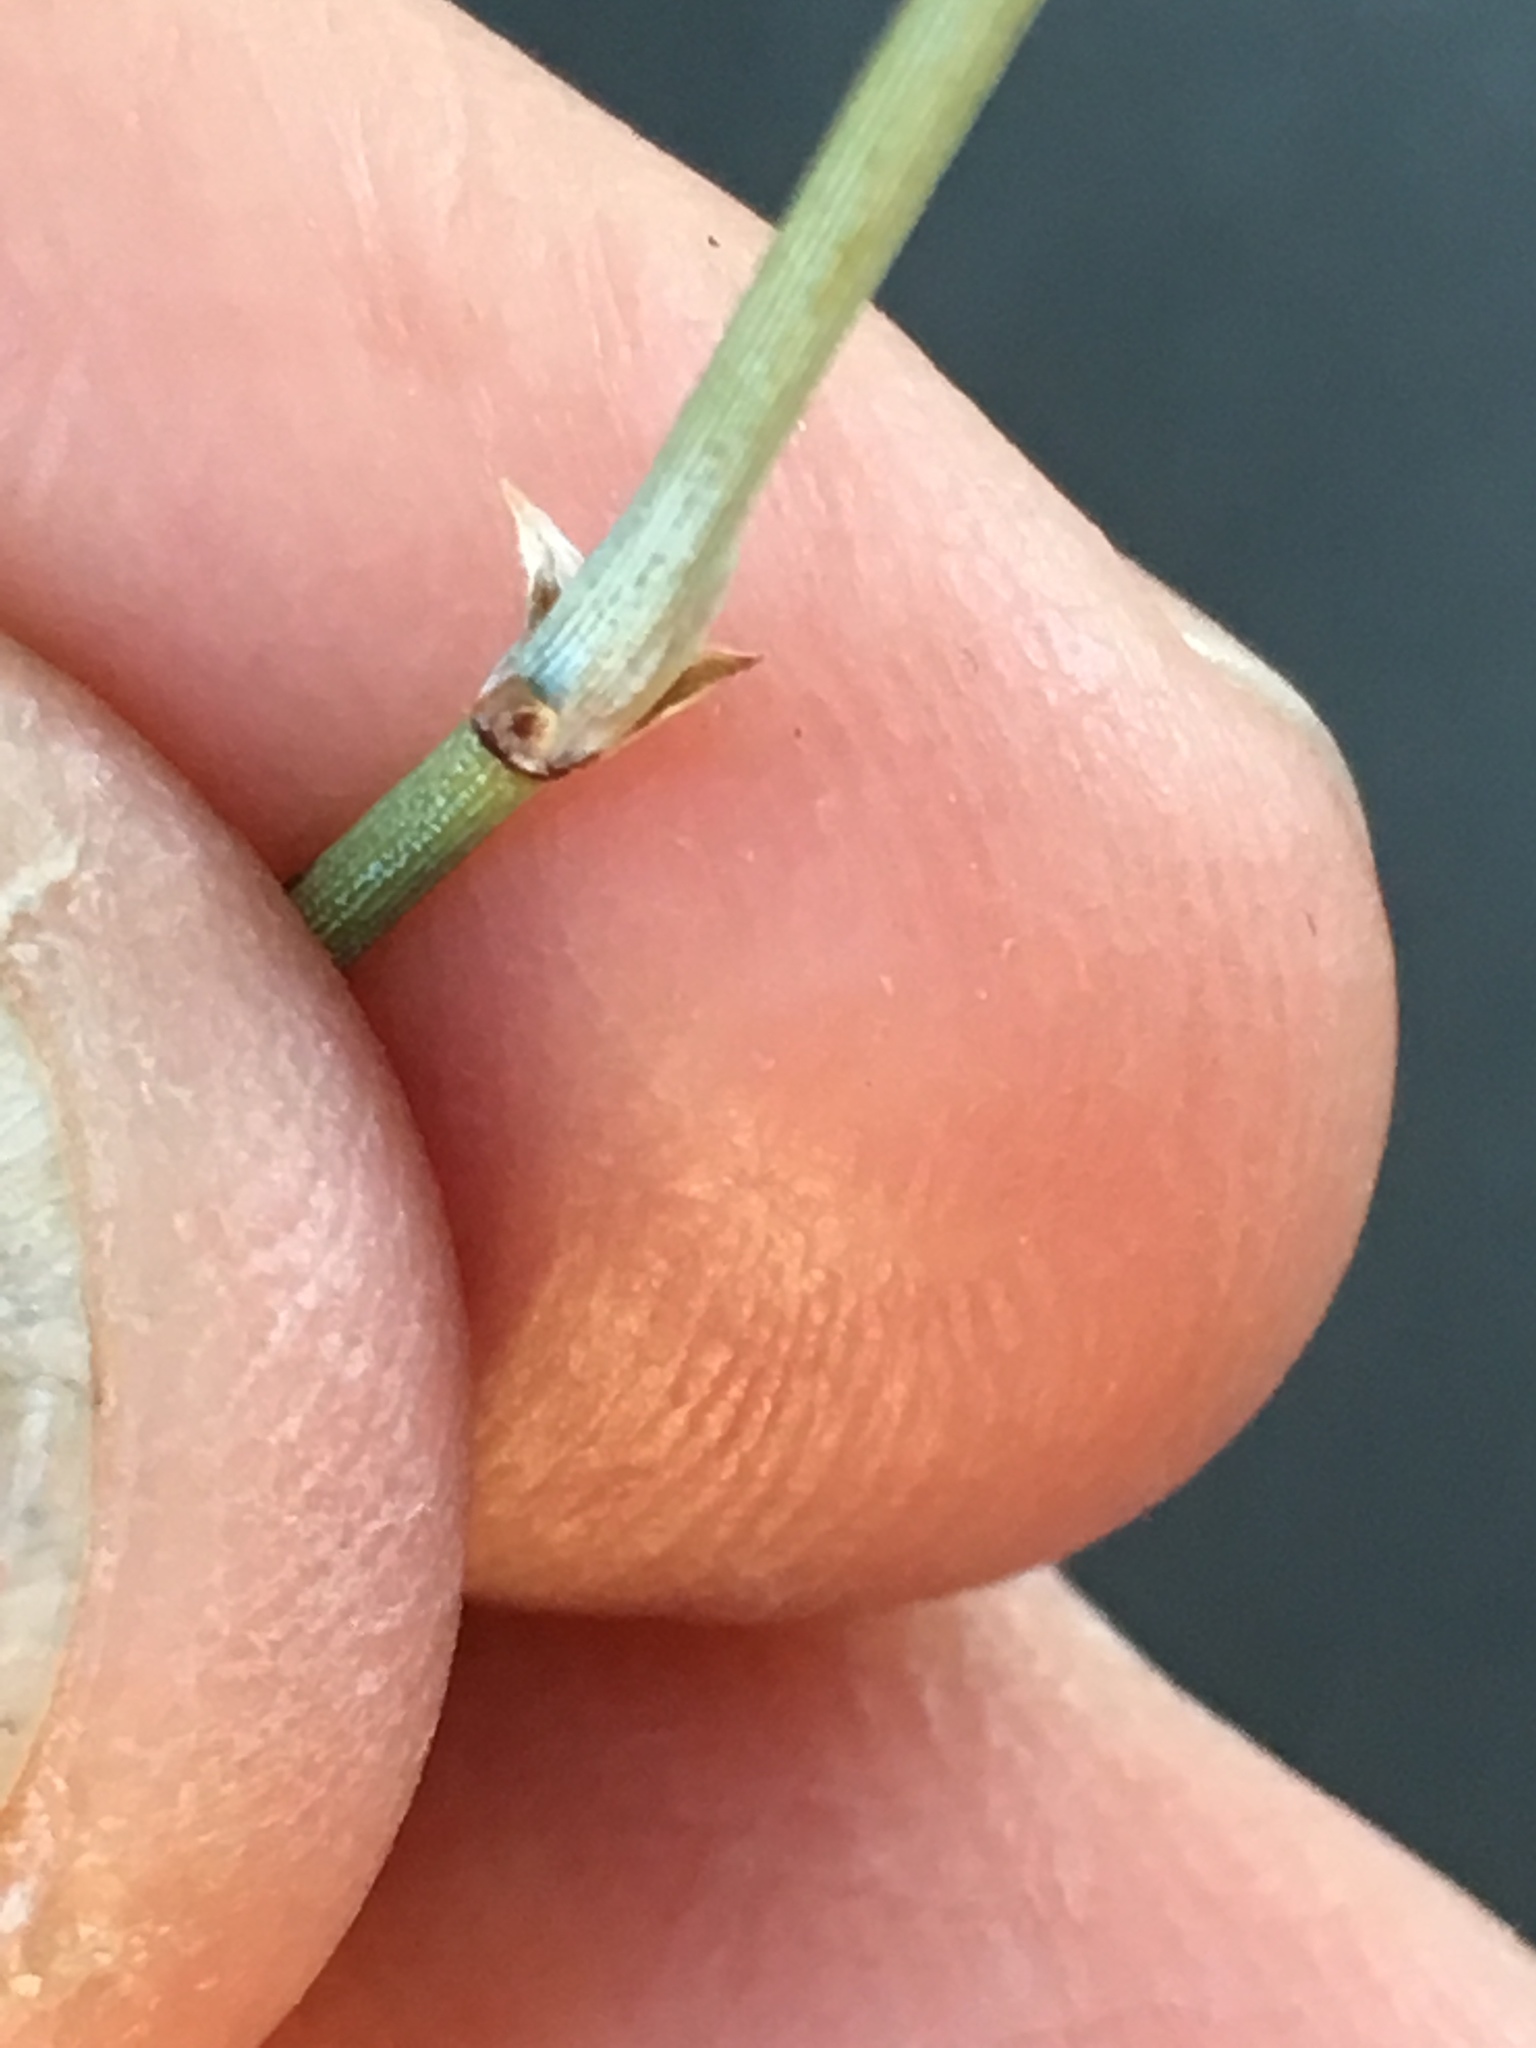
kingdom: Plantae
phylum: Tracheophyta
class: Gnetopsida
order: Ephedrales
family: Ephedraceae
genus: Ephedra
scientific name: Ephedra californica
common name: California ephedra
